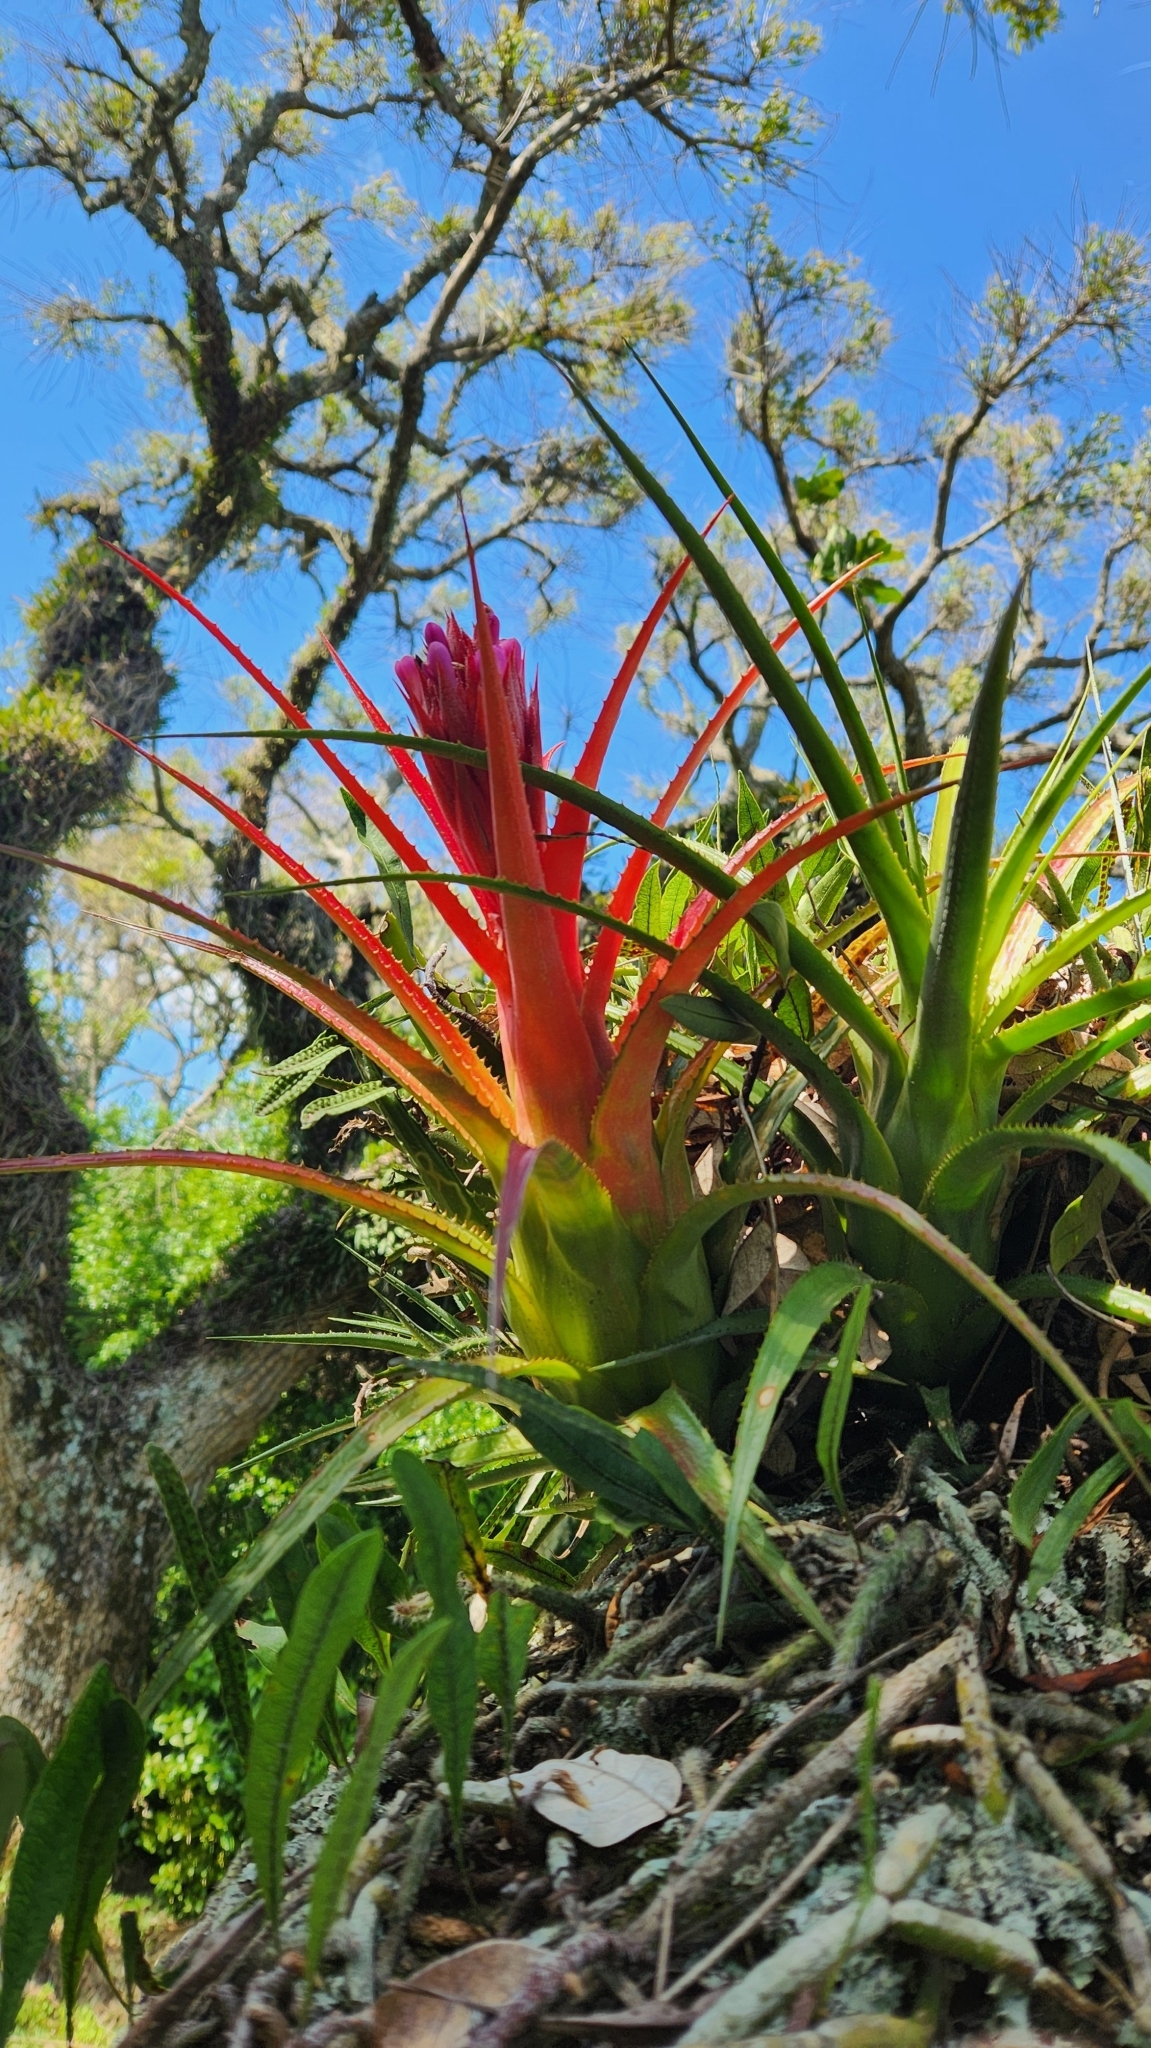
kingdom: Plantae
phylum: Tracheophyta
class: Liliopsida
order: Poales
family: Bromeliaceae
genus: Aechmea
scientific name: Aechmea recurvata
